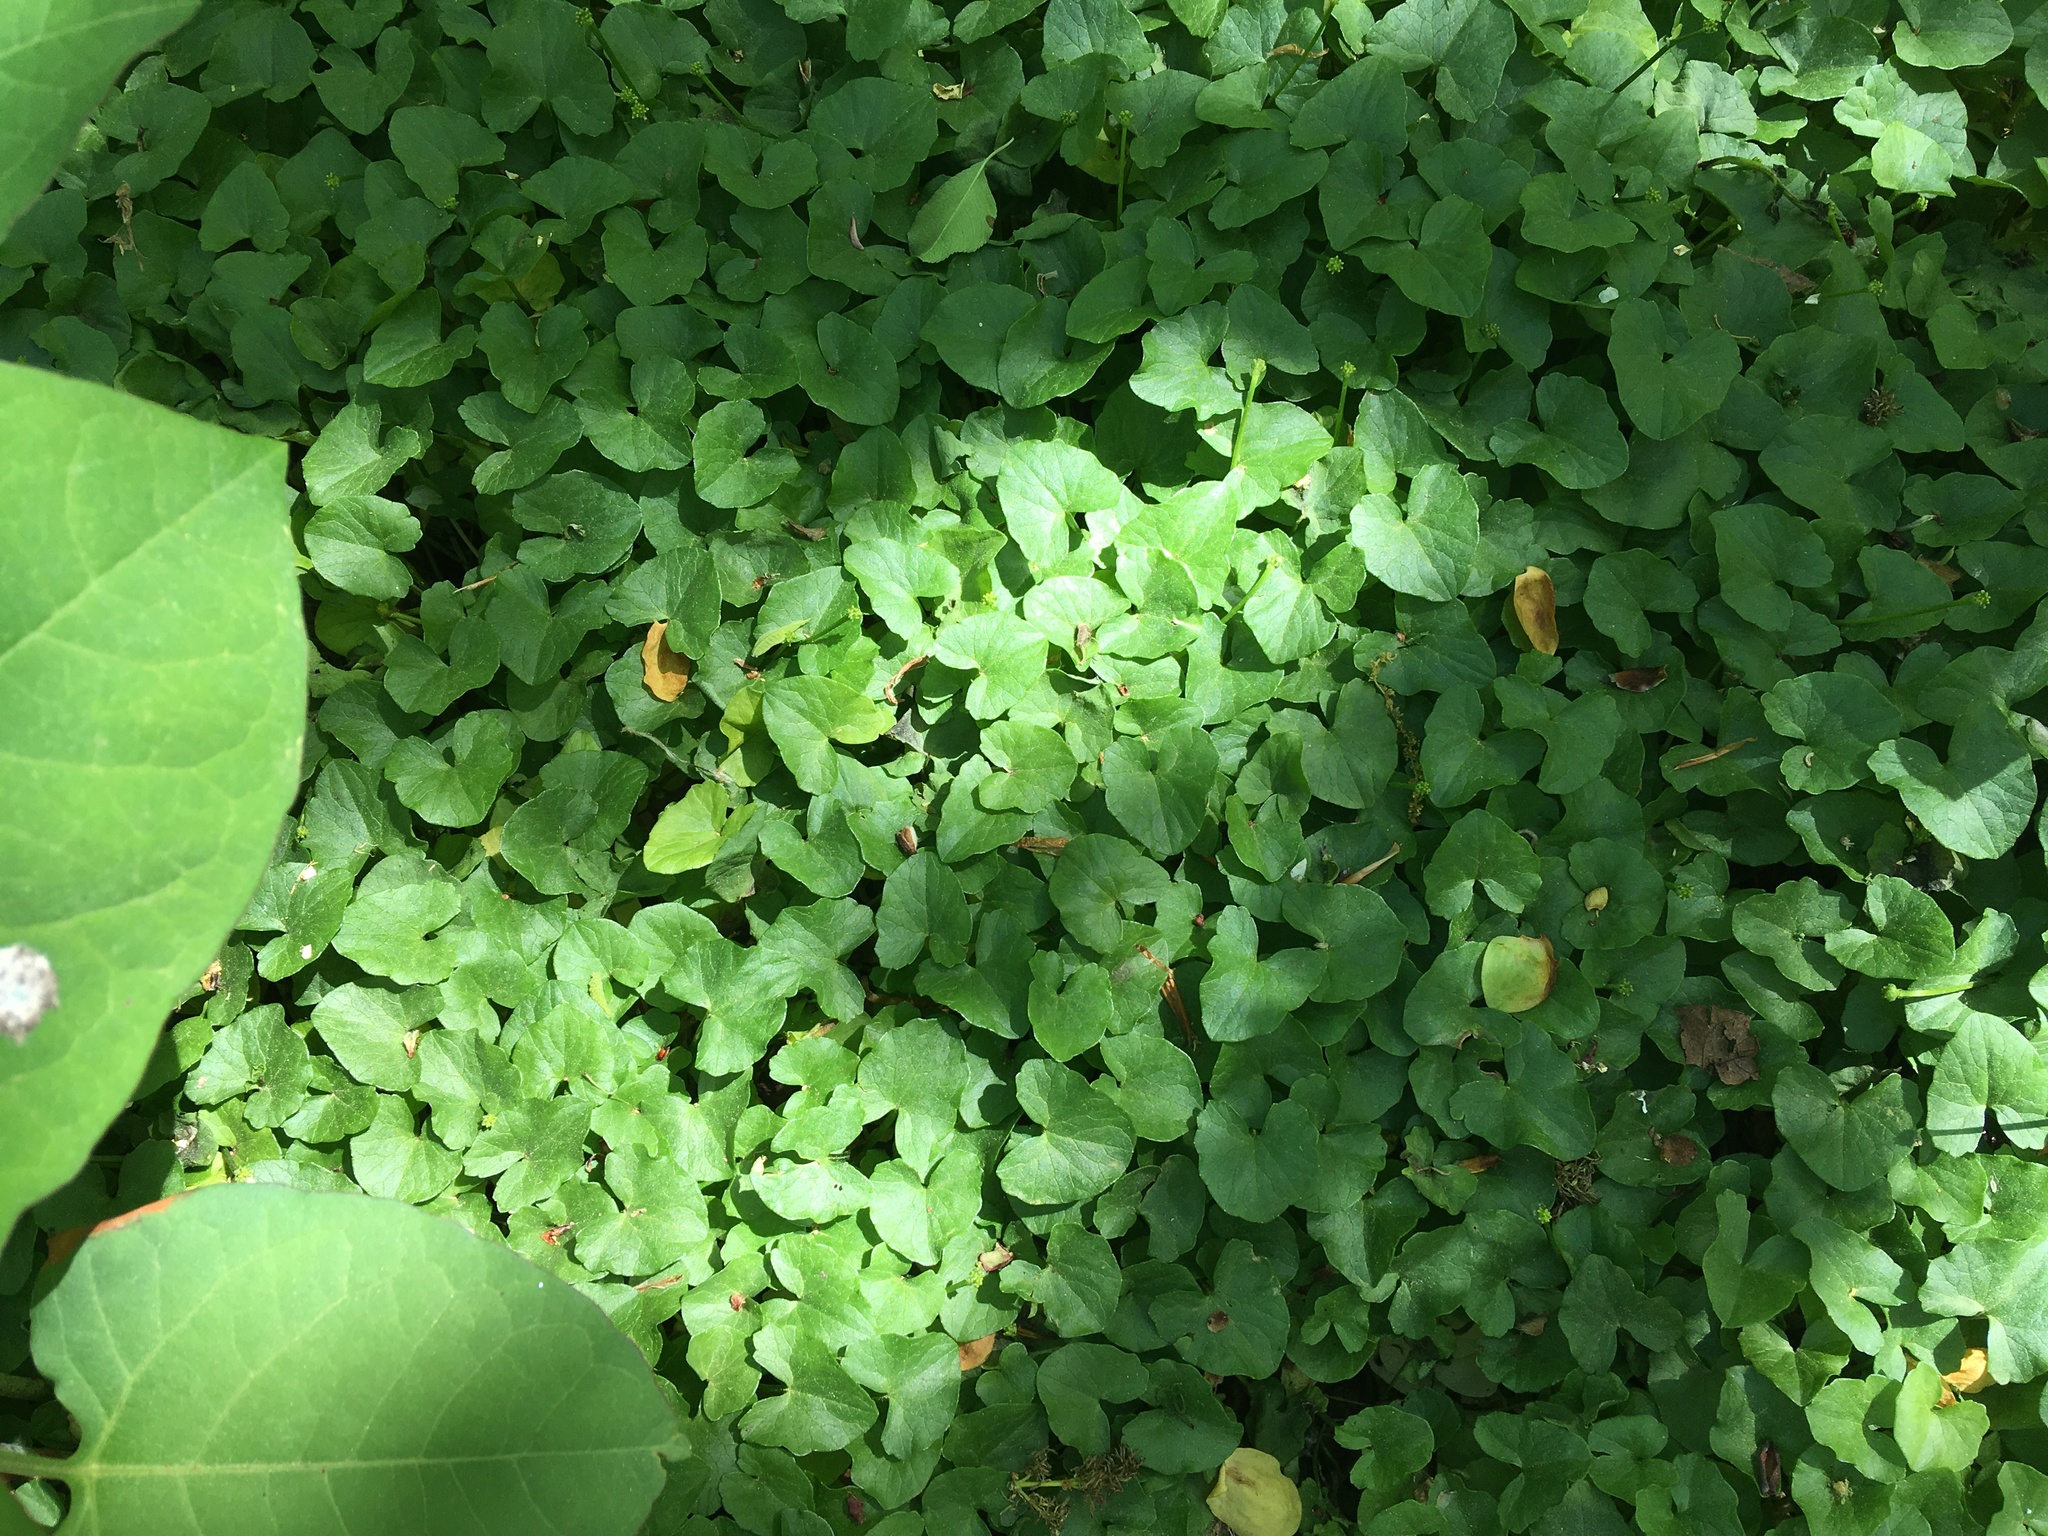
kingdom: Plantae
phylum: Tracheophyta
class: Magnoliopsida
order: Ranunculales
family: Ranunculaceae
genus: Ficaria
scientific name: Ficaria verna
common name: Lesser celandine
